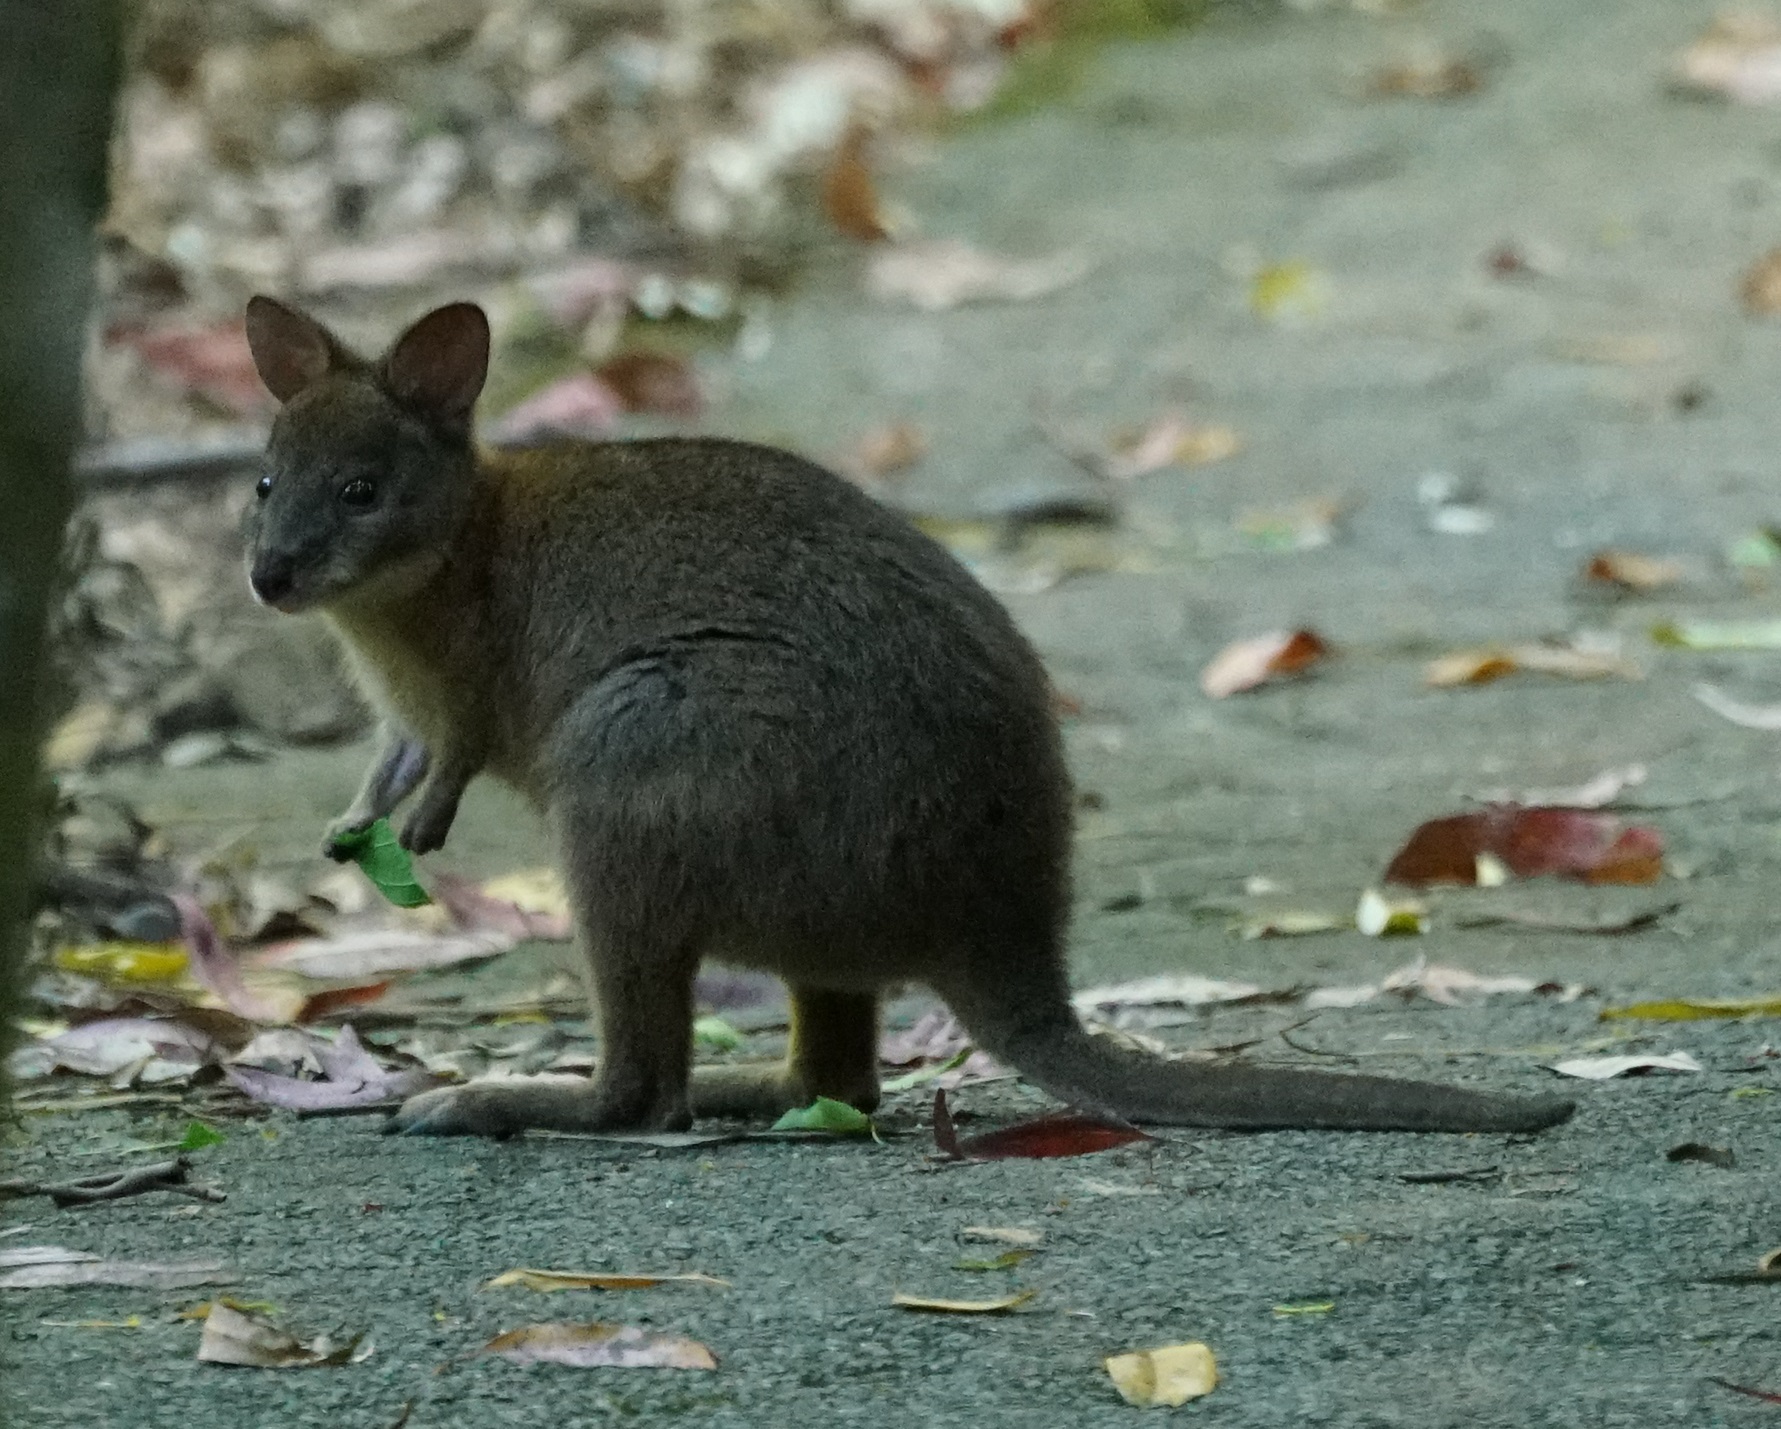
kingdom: Animalia
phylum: Chordata
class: Mammalia
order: Diprotodontia
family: Macropodidae
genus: Thylogale
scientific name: Thylogale thetis
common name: Red-necked pademelon
